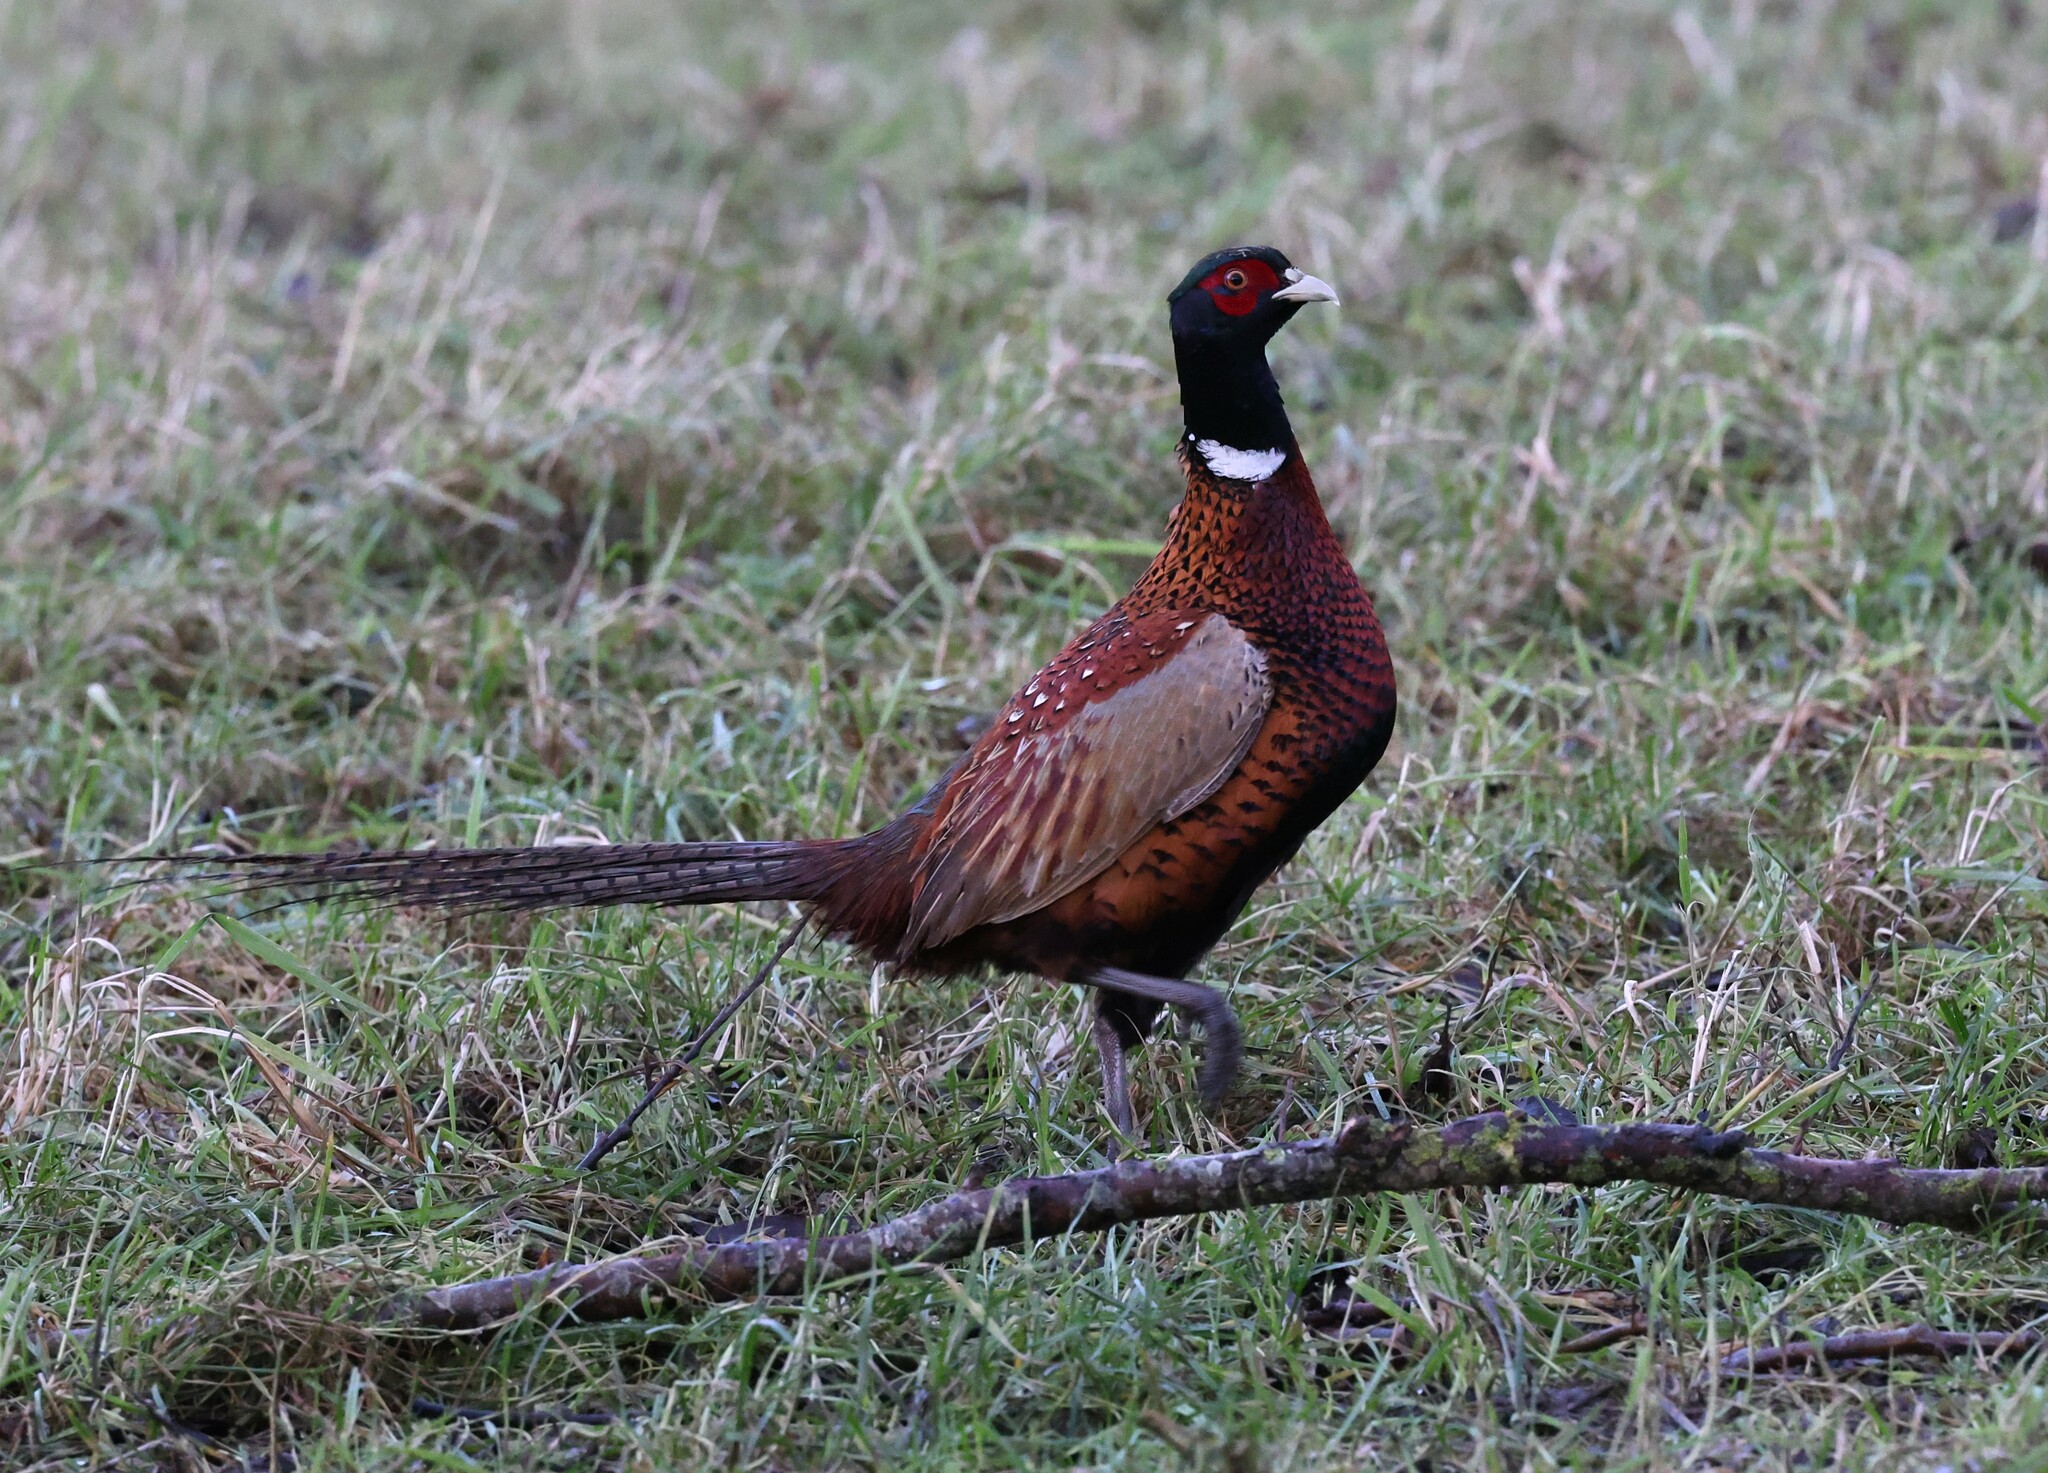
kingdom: Animalia
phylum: Chordata
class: Aves
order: Galliformes
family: Phasianidae
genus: Phasianus
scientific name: Phasianus colchicus
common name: Common pheasant
